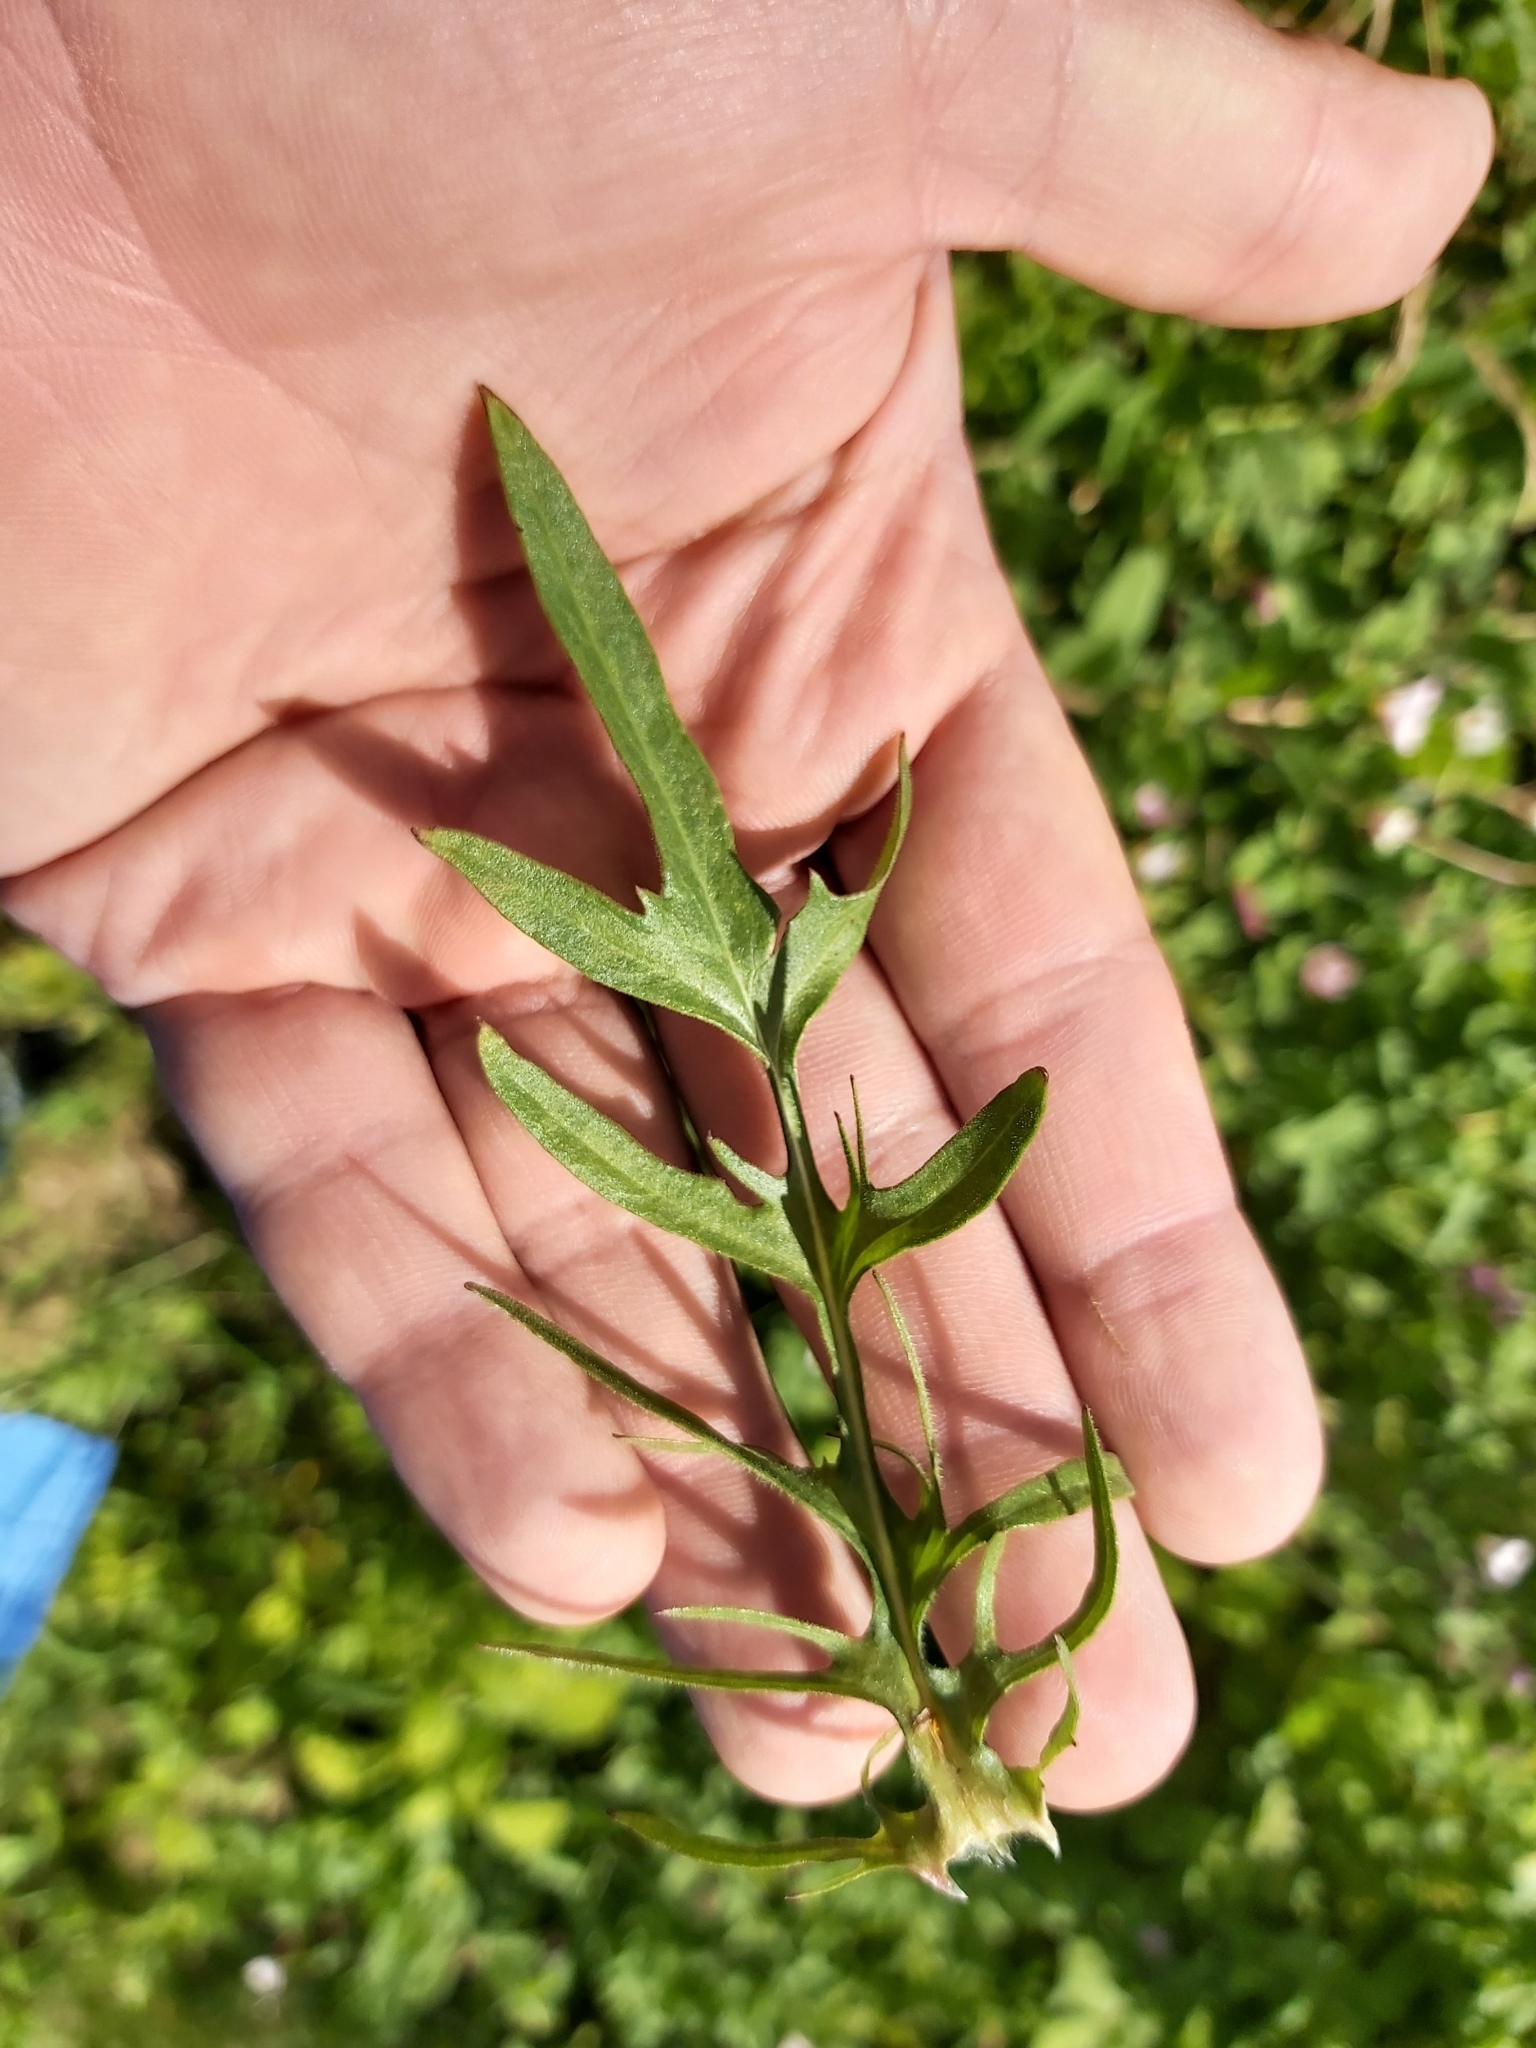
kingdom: Plantae
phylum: Tracheophyta
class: Magnoliopsida
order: Asterales
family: Asteraceae
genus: Picris
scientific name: Picris hieracioides
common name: Hawkweed oxtongue
